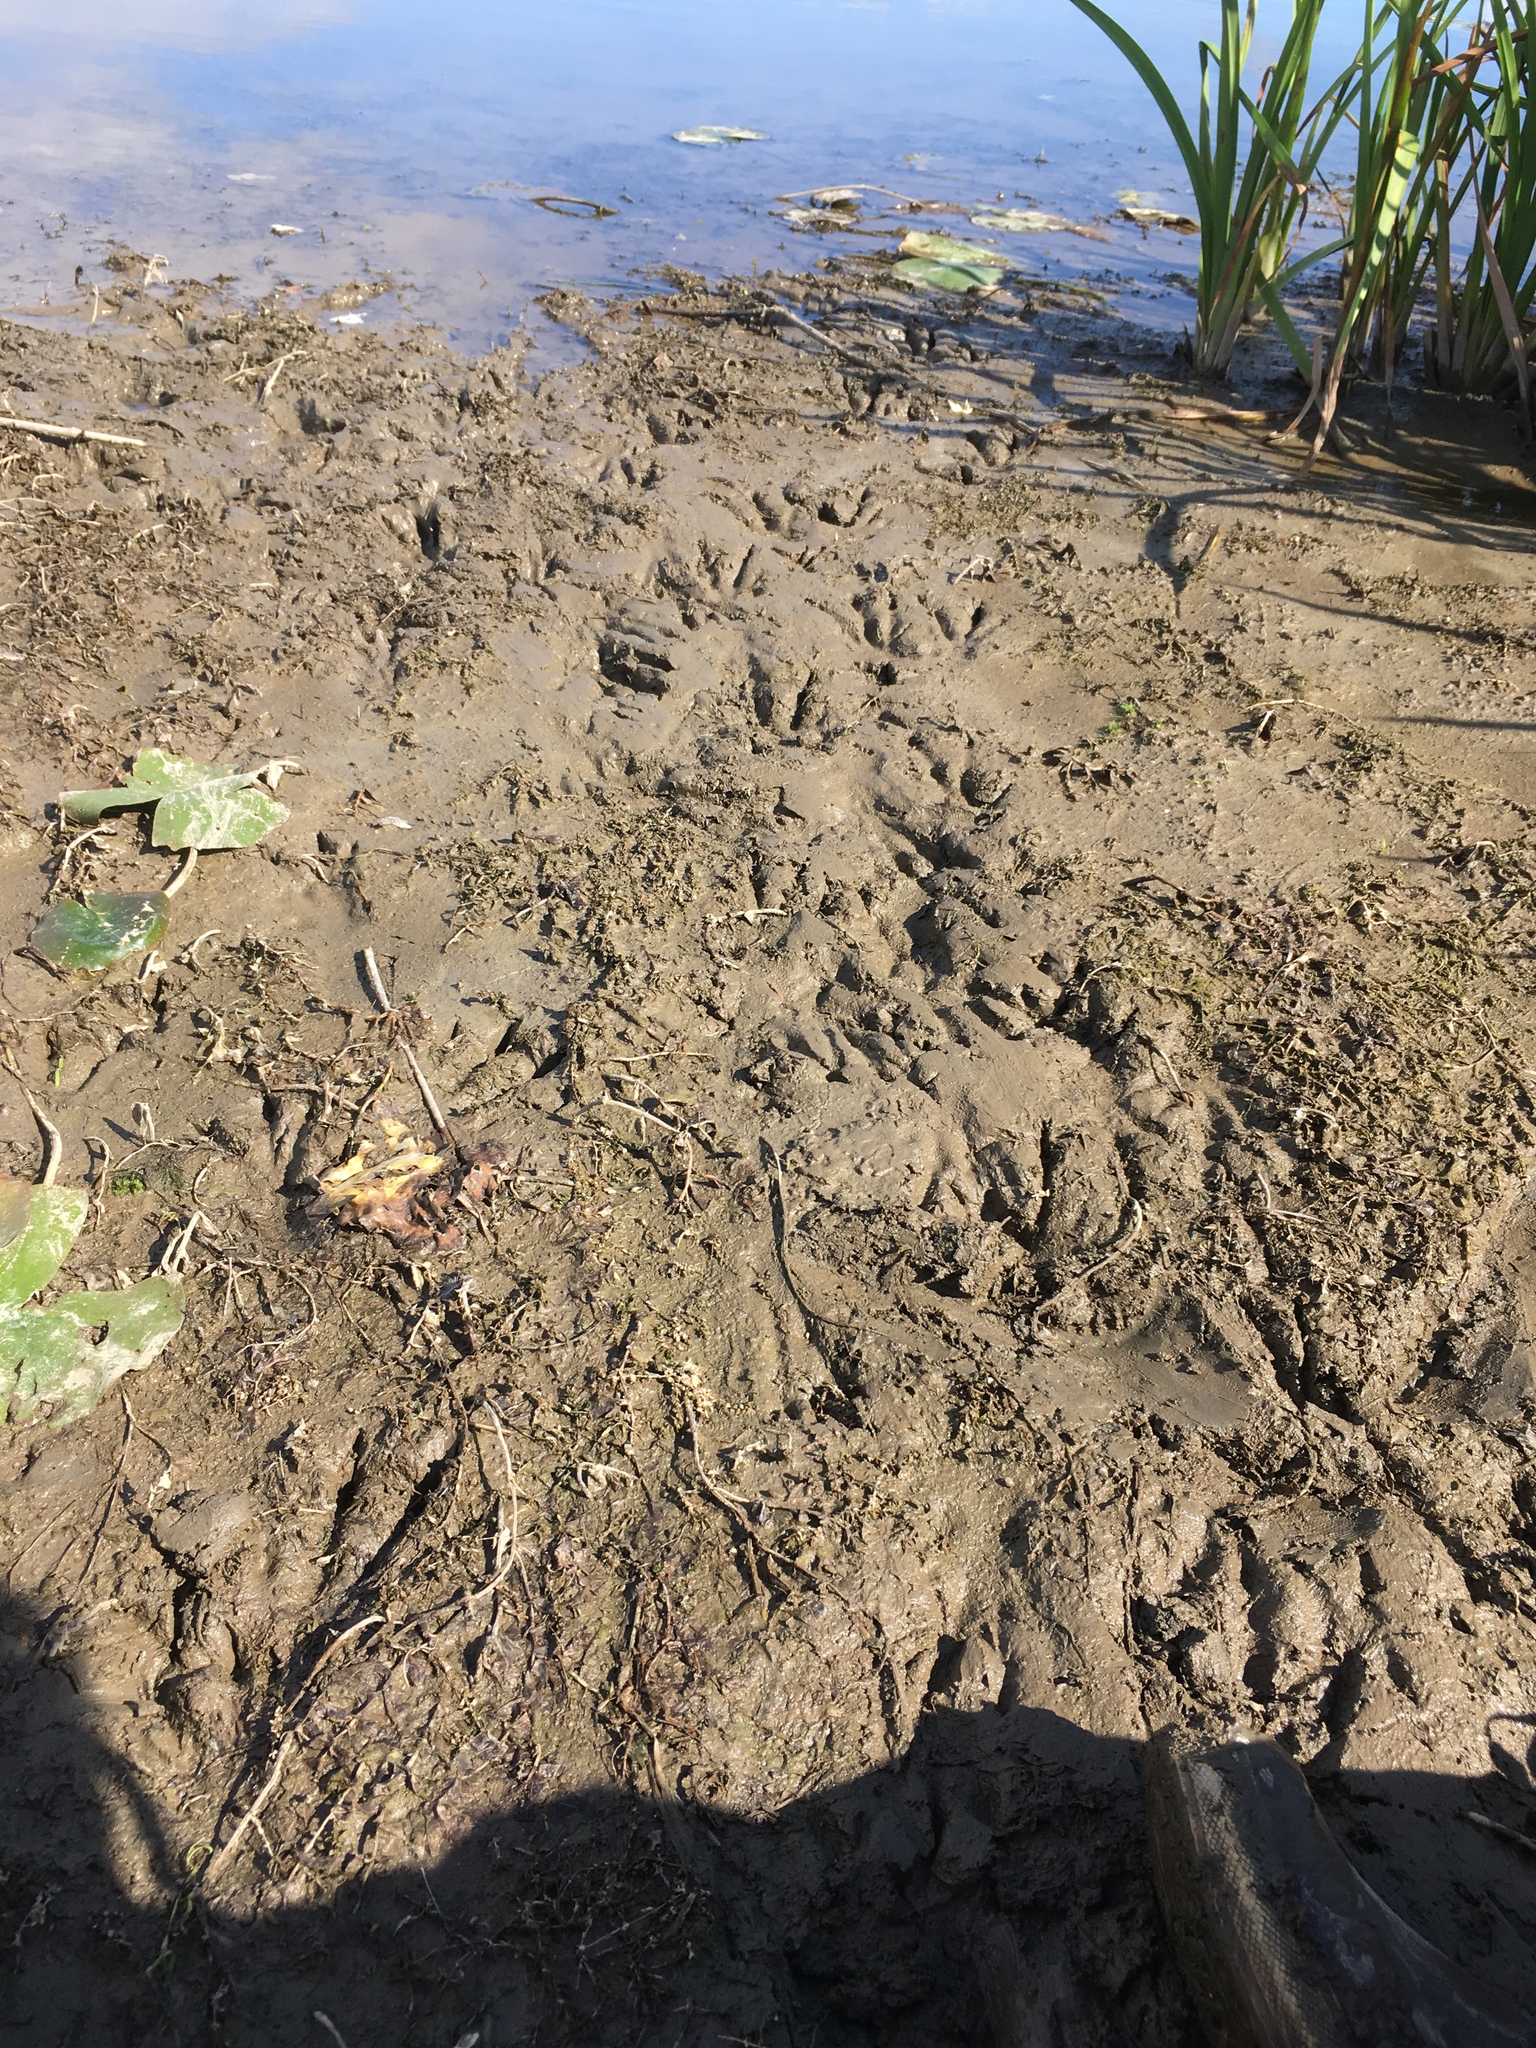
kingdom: Animalia
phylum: Chordata
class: Aves
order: Anseriformes
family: Anatidae
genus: Branta
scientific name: Branta canadensis
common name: Canada goose
